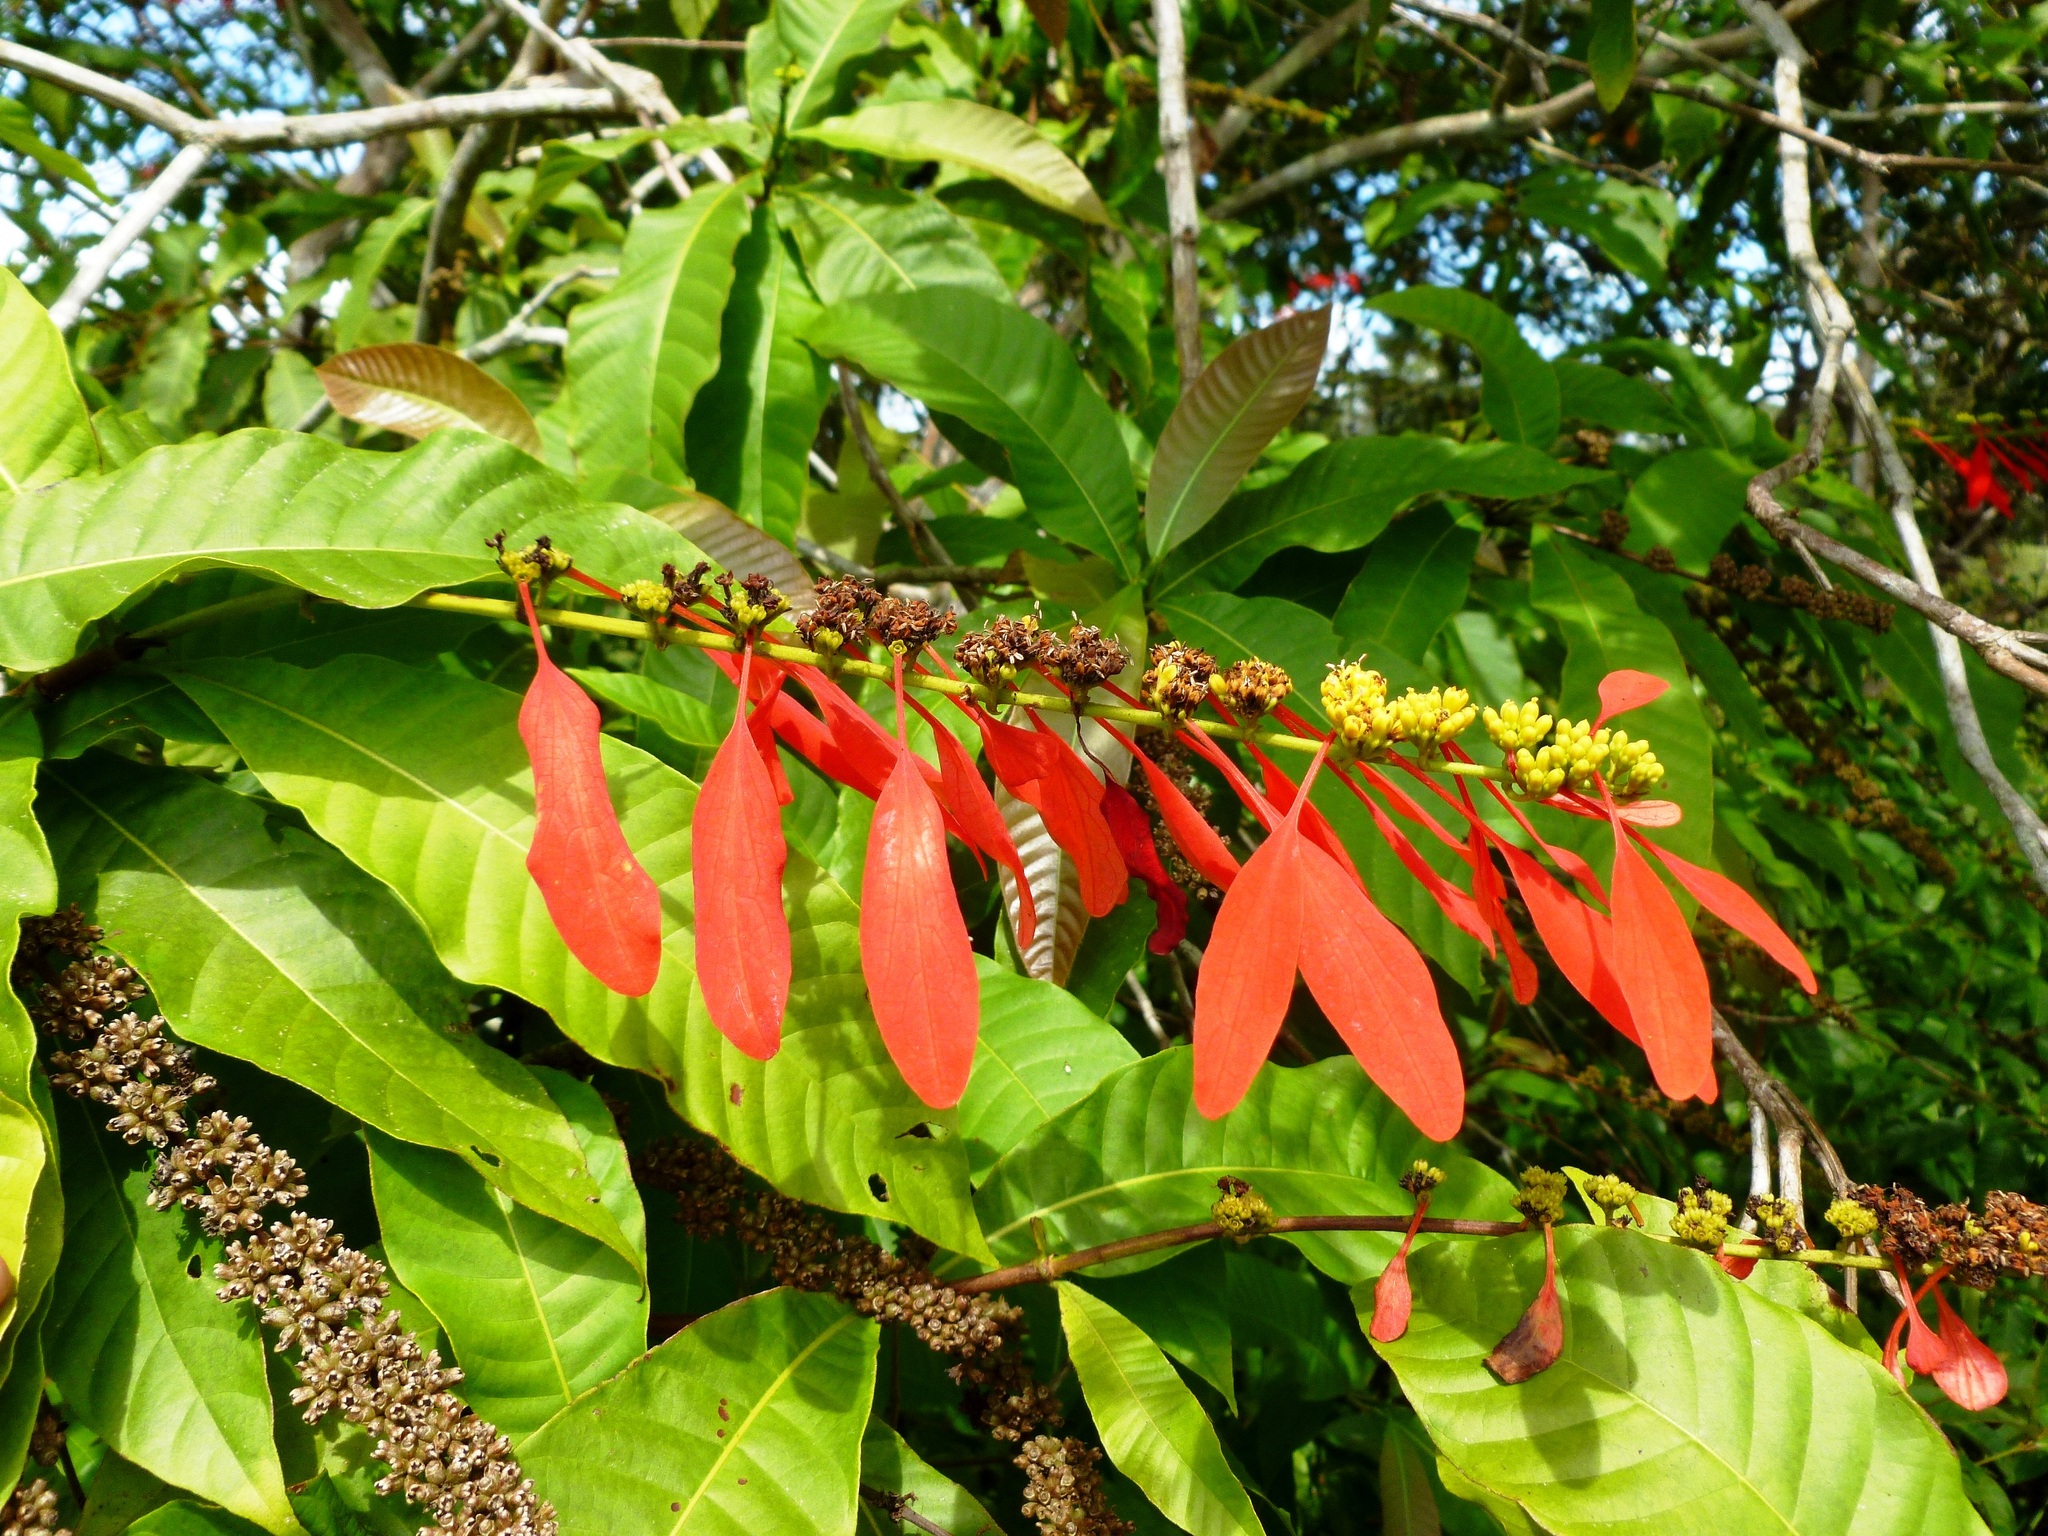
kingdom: Plantae
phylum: Tracheophyta
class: Magnoliopsida
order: Gentianales
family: Rubiaceae
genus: Warszewiczia
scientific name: Warszewiczia coccinea
